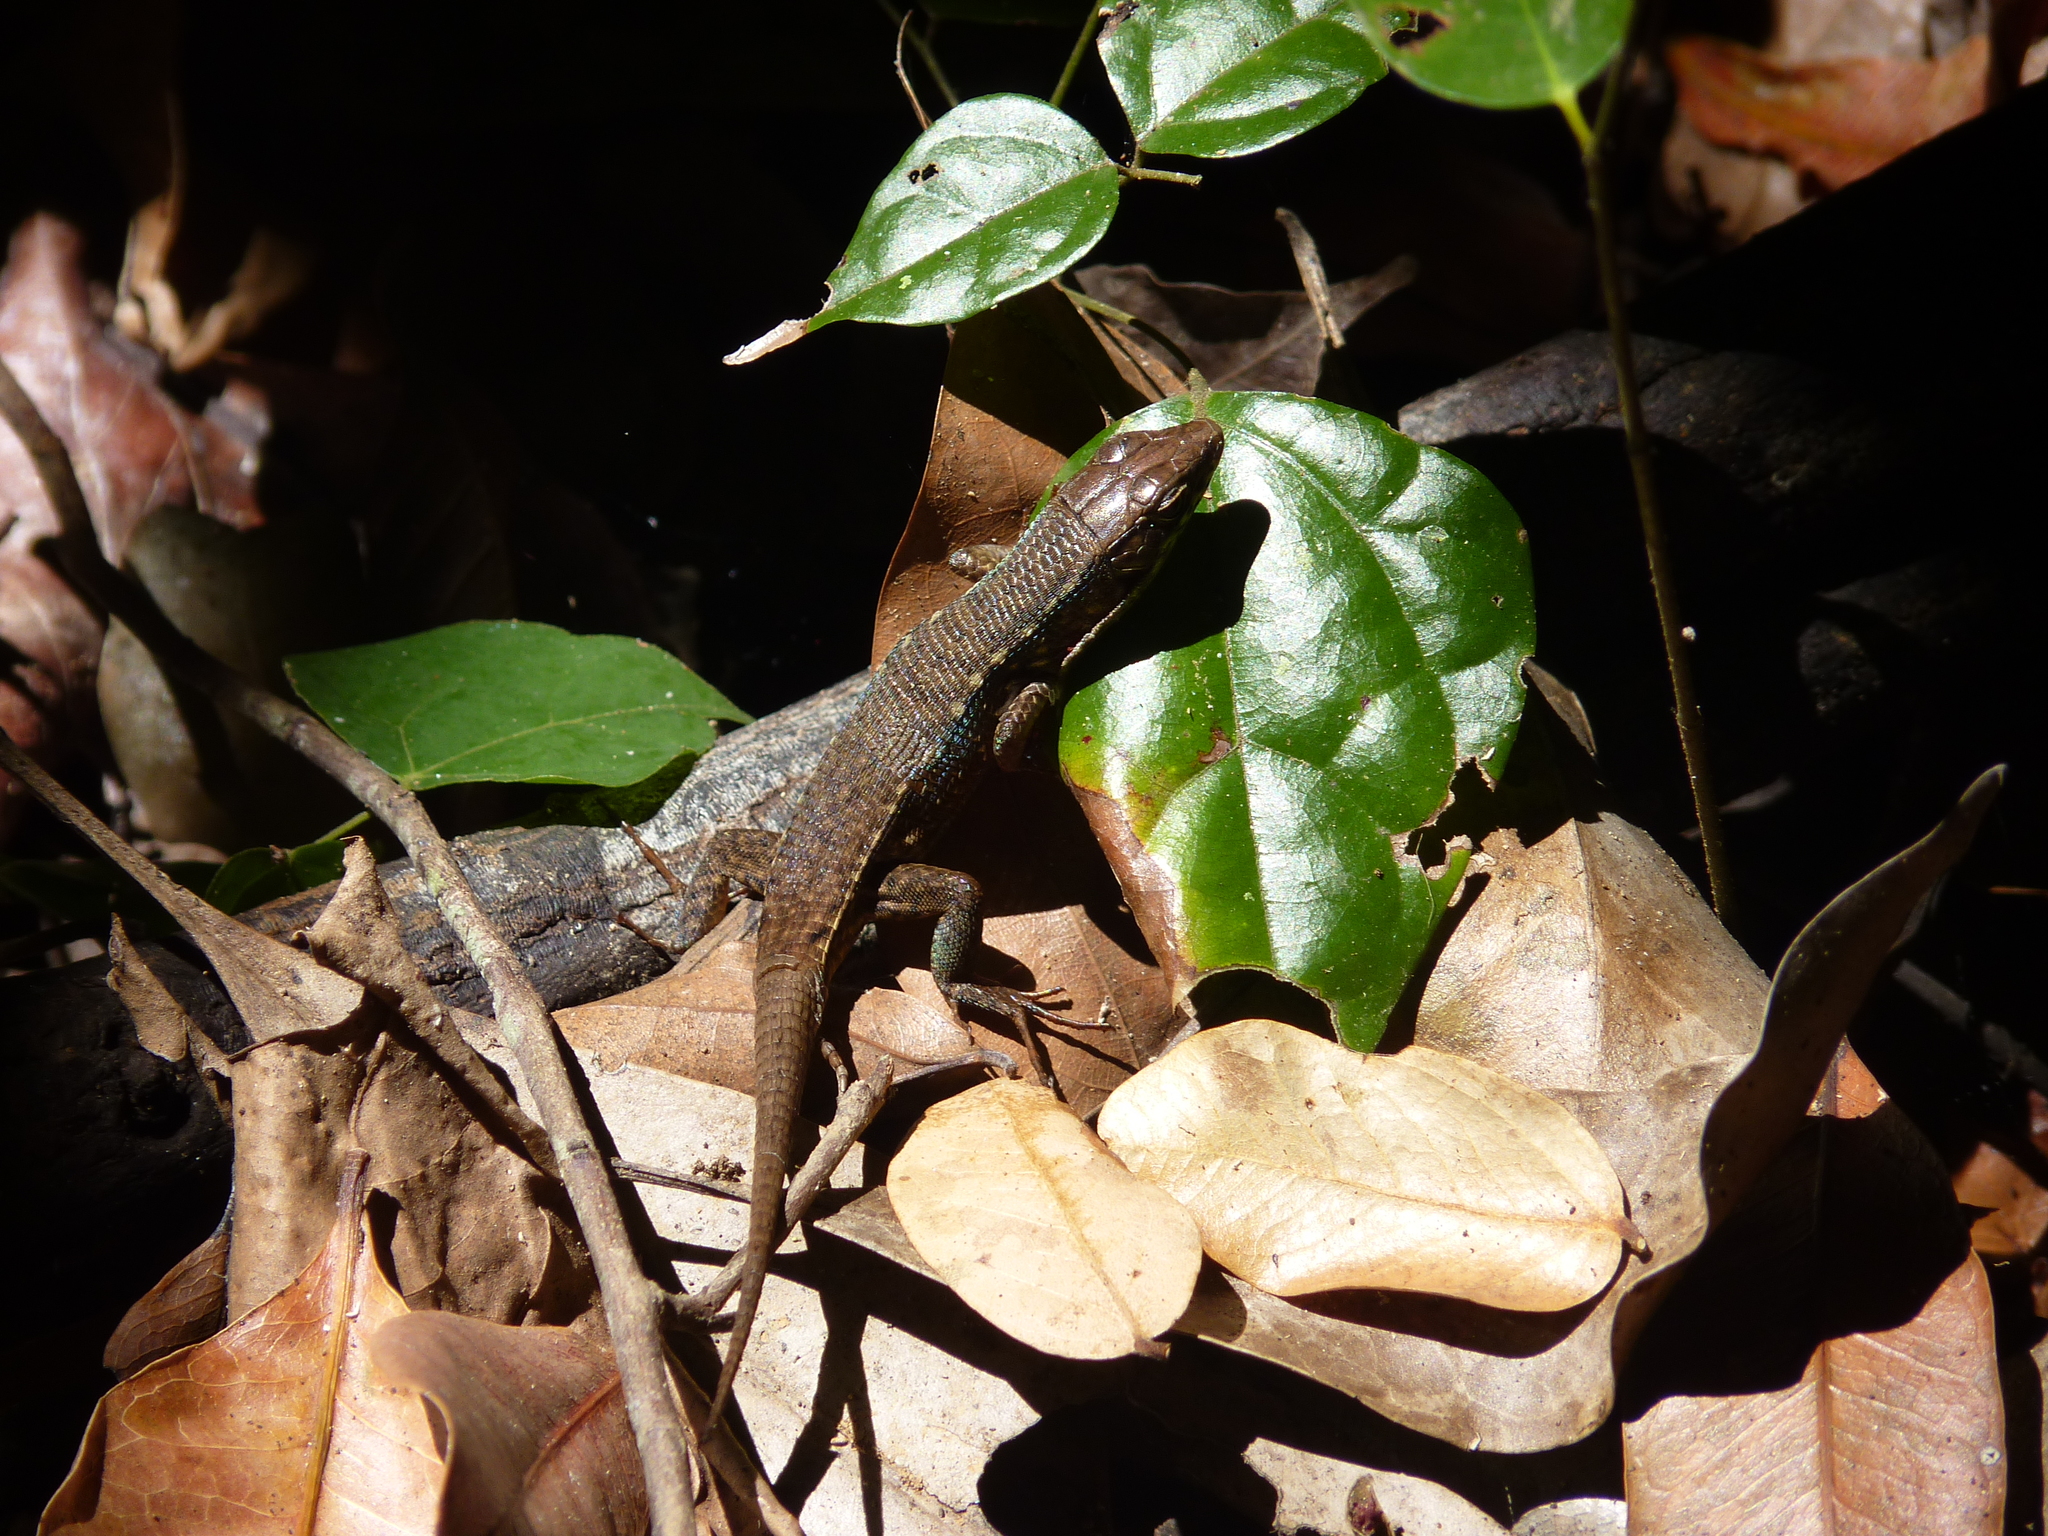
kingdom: Animalia
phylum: Chordata
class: Squamata
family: Gerrhosauridae
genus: Zonosaurus
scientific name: Zonosaurus rufipes
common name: Red-legged girdled lizard
